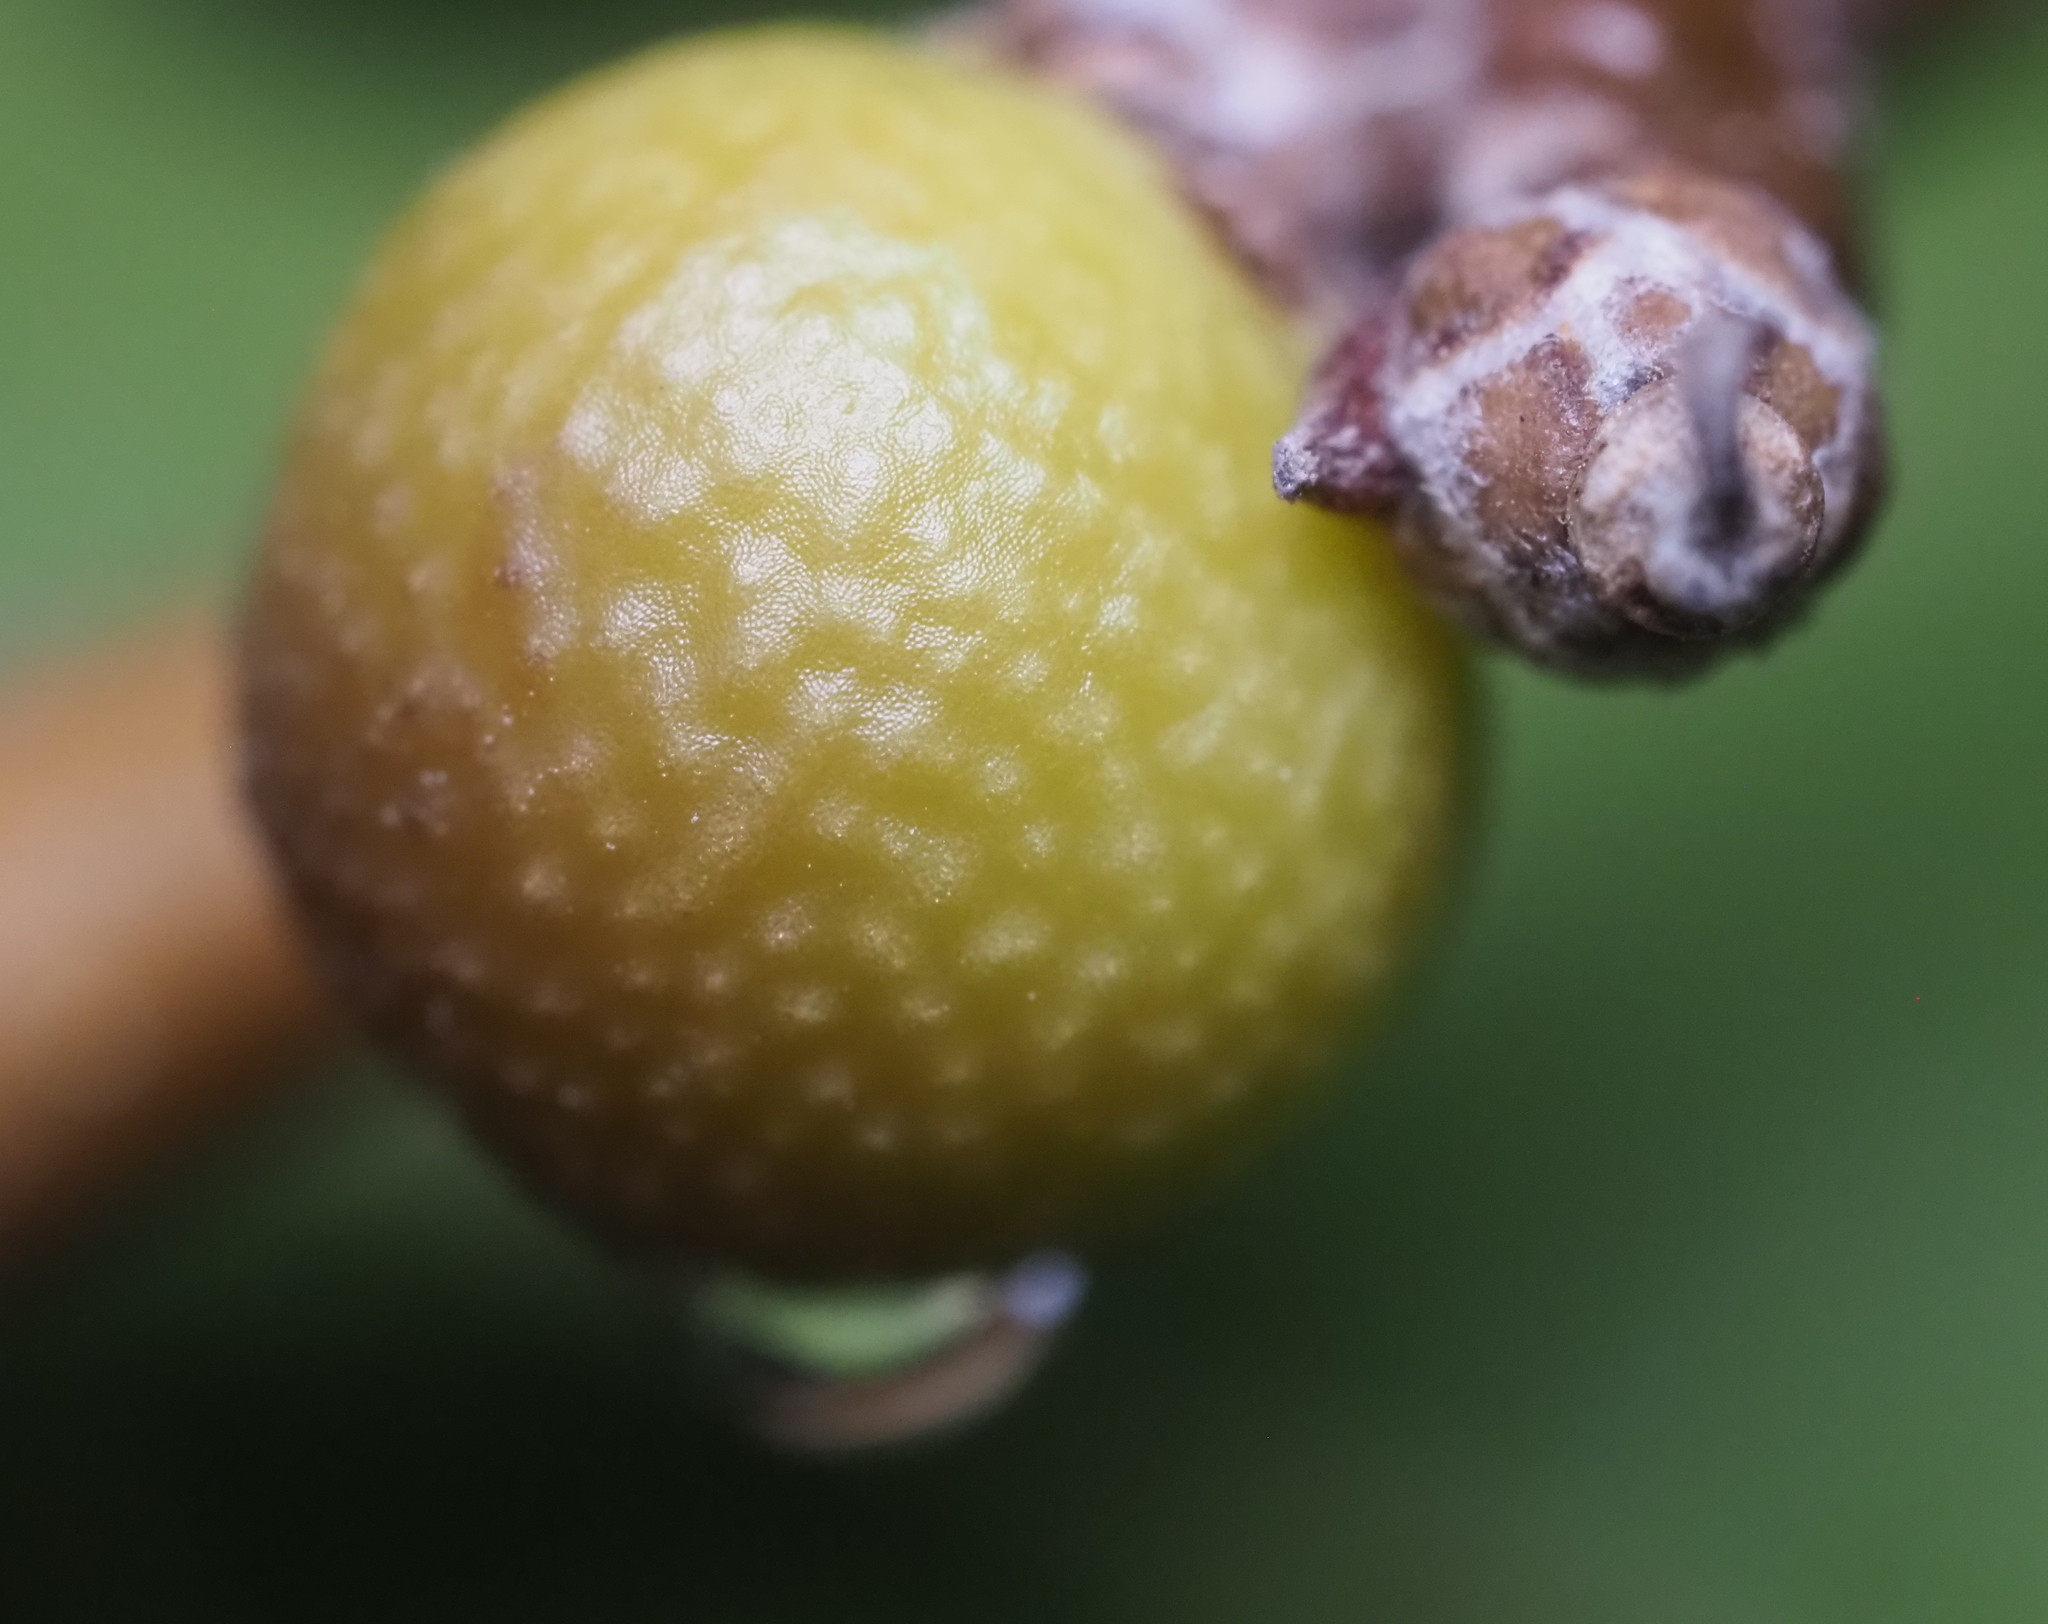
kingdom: Animalia
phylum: Arthropoda
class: Insecta
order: Hymenoptera
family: Cynipidae
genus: Callirhytis
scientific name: Callirhytis
